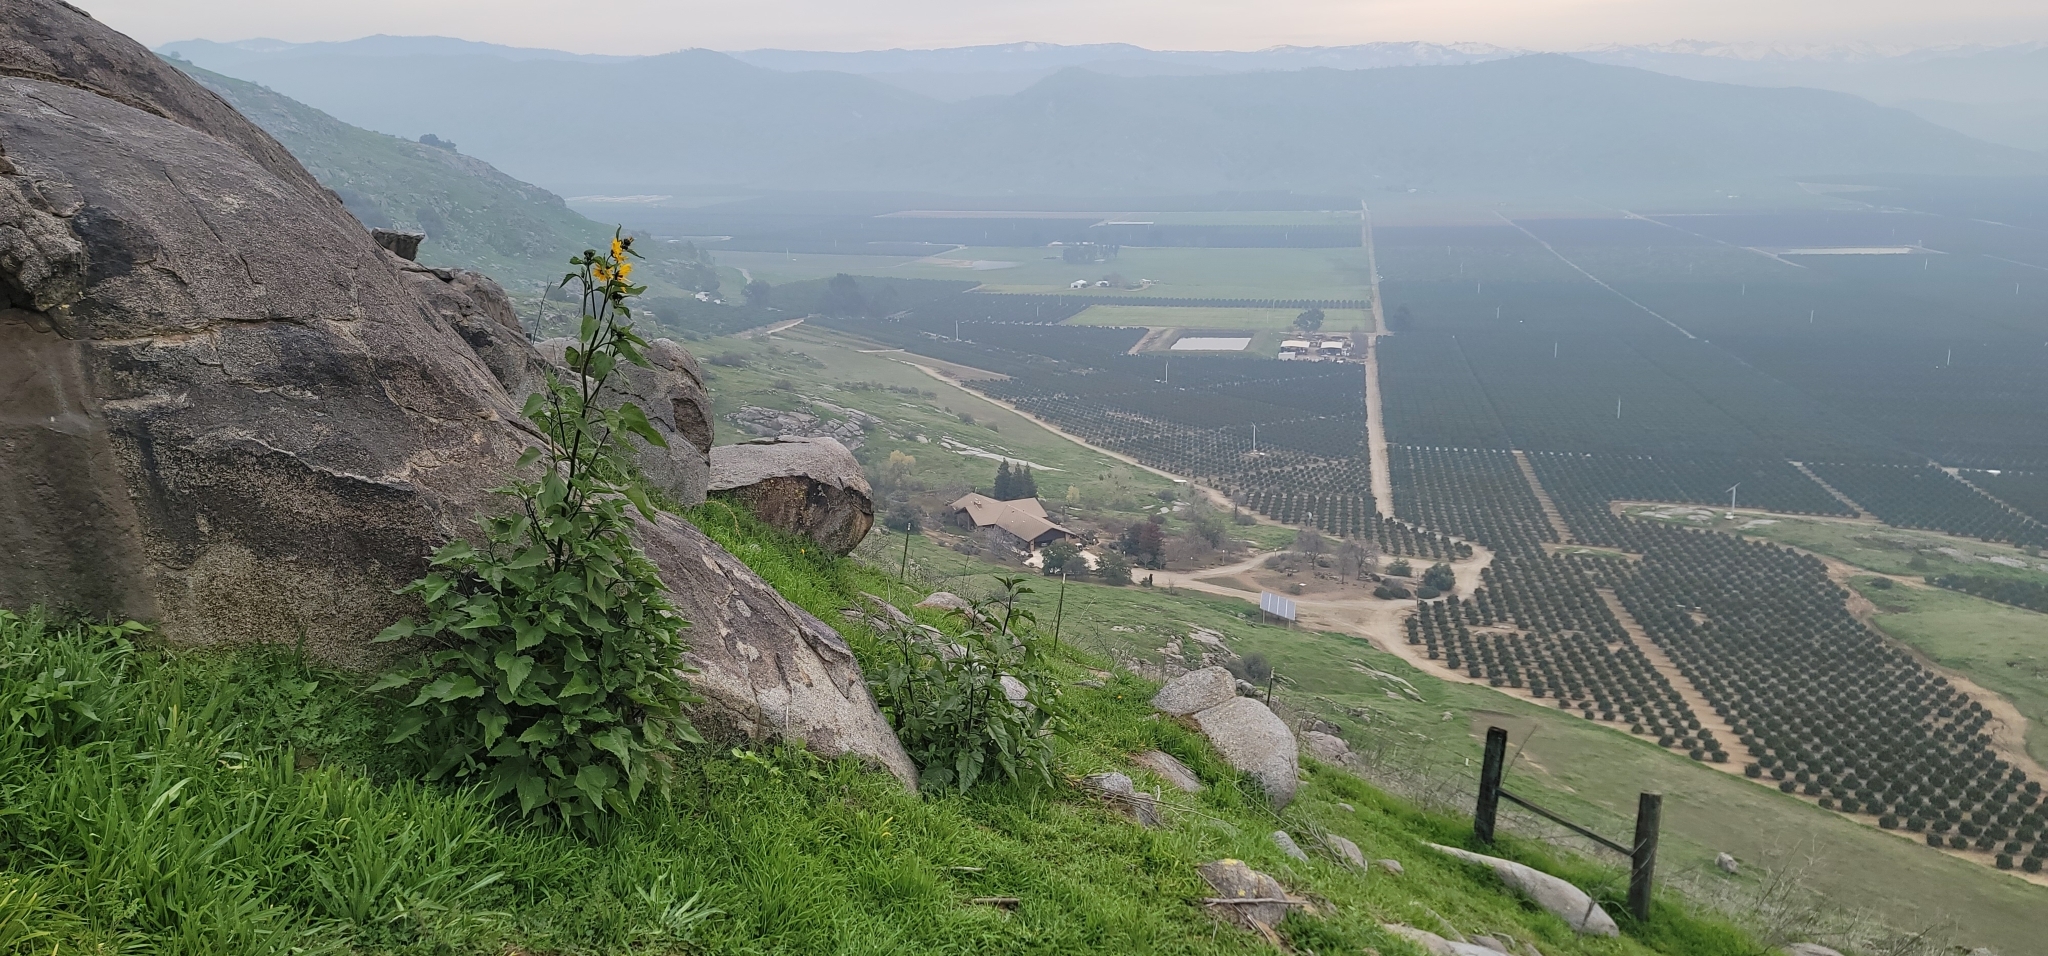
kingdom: Plantae
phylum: Tracheophyta
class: Magnoliopsida
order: Asterales
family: Asteraceae
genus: Helianthus
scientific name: Helianthus winteri
